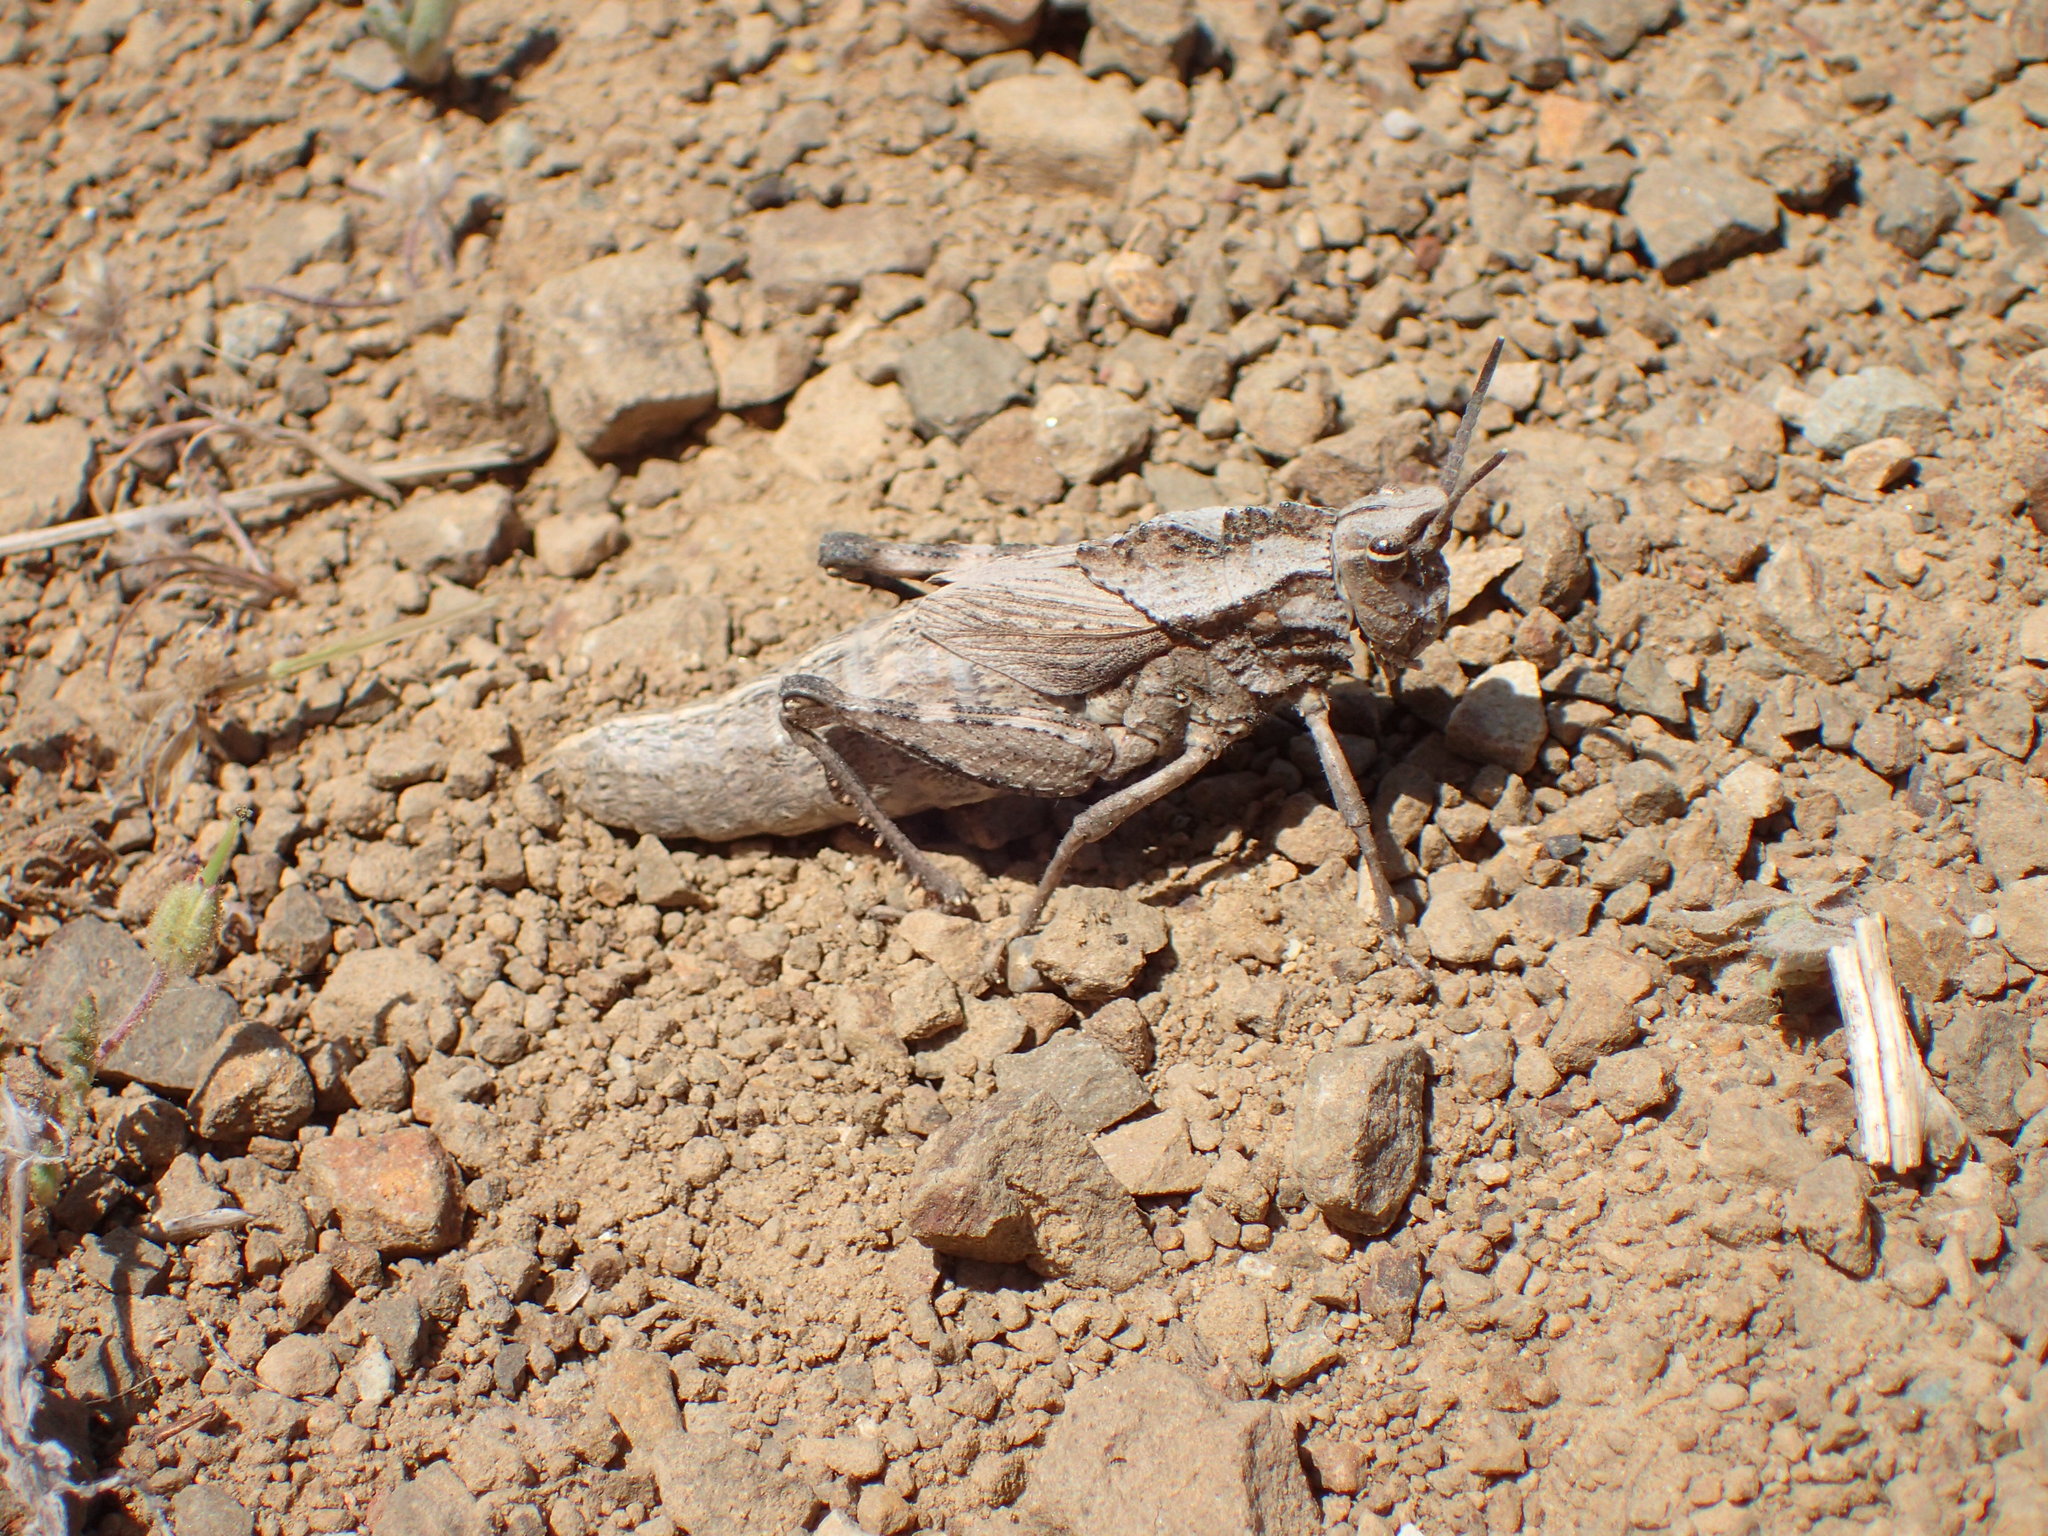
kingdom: Animalia
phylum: Arthropoda
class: Insecta
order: Orthoptera
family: Romaleidae
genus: Dracotettix
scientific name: Dracotettix monstrosus
